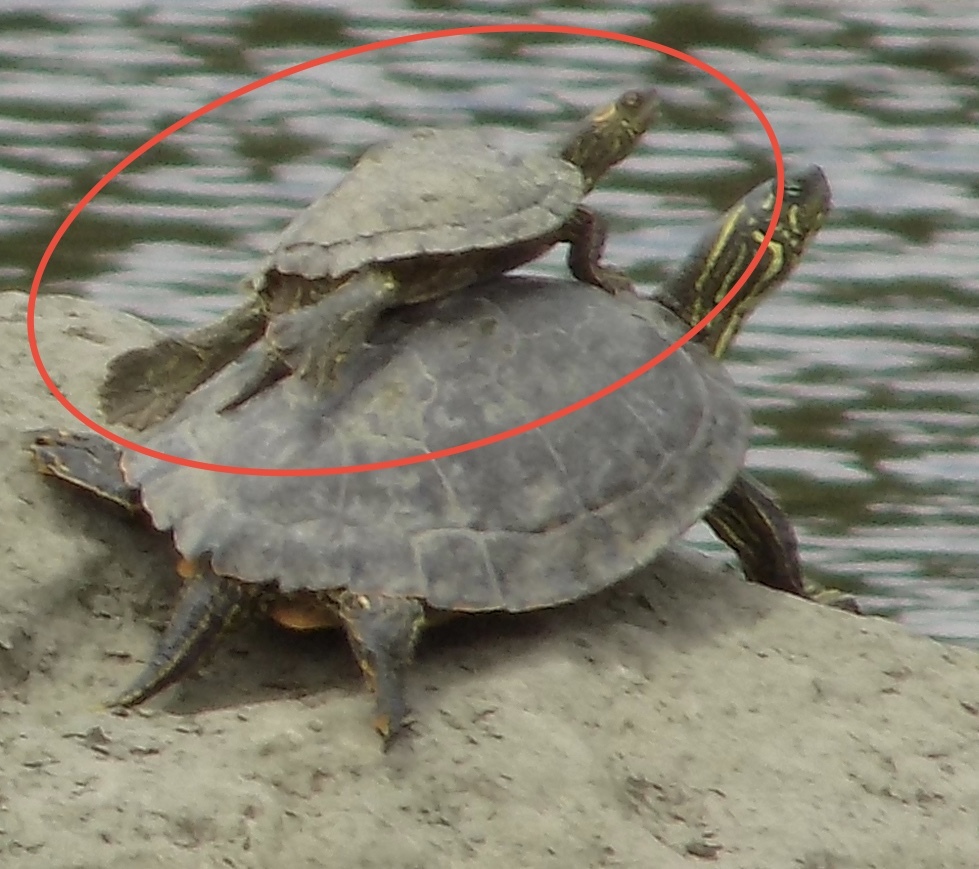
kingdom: Animalia
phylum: Chordata
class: Testudines
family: Emydidae
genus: Graptemys
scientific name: Graptemys versa
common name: Texas map turtle
